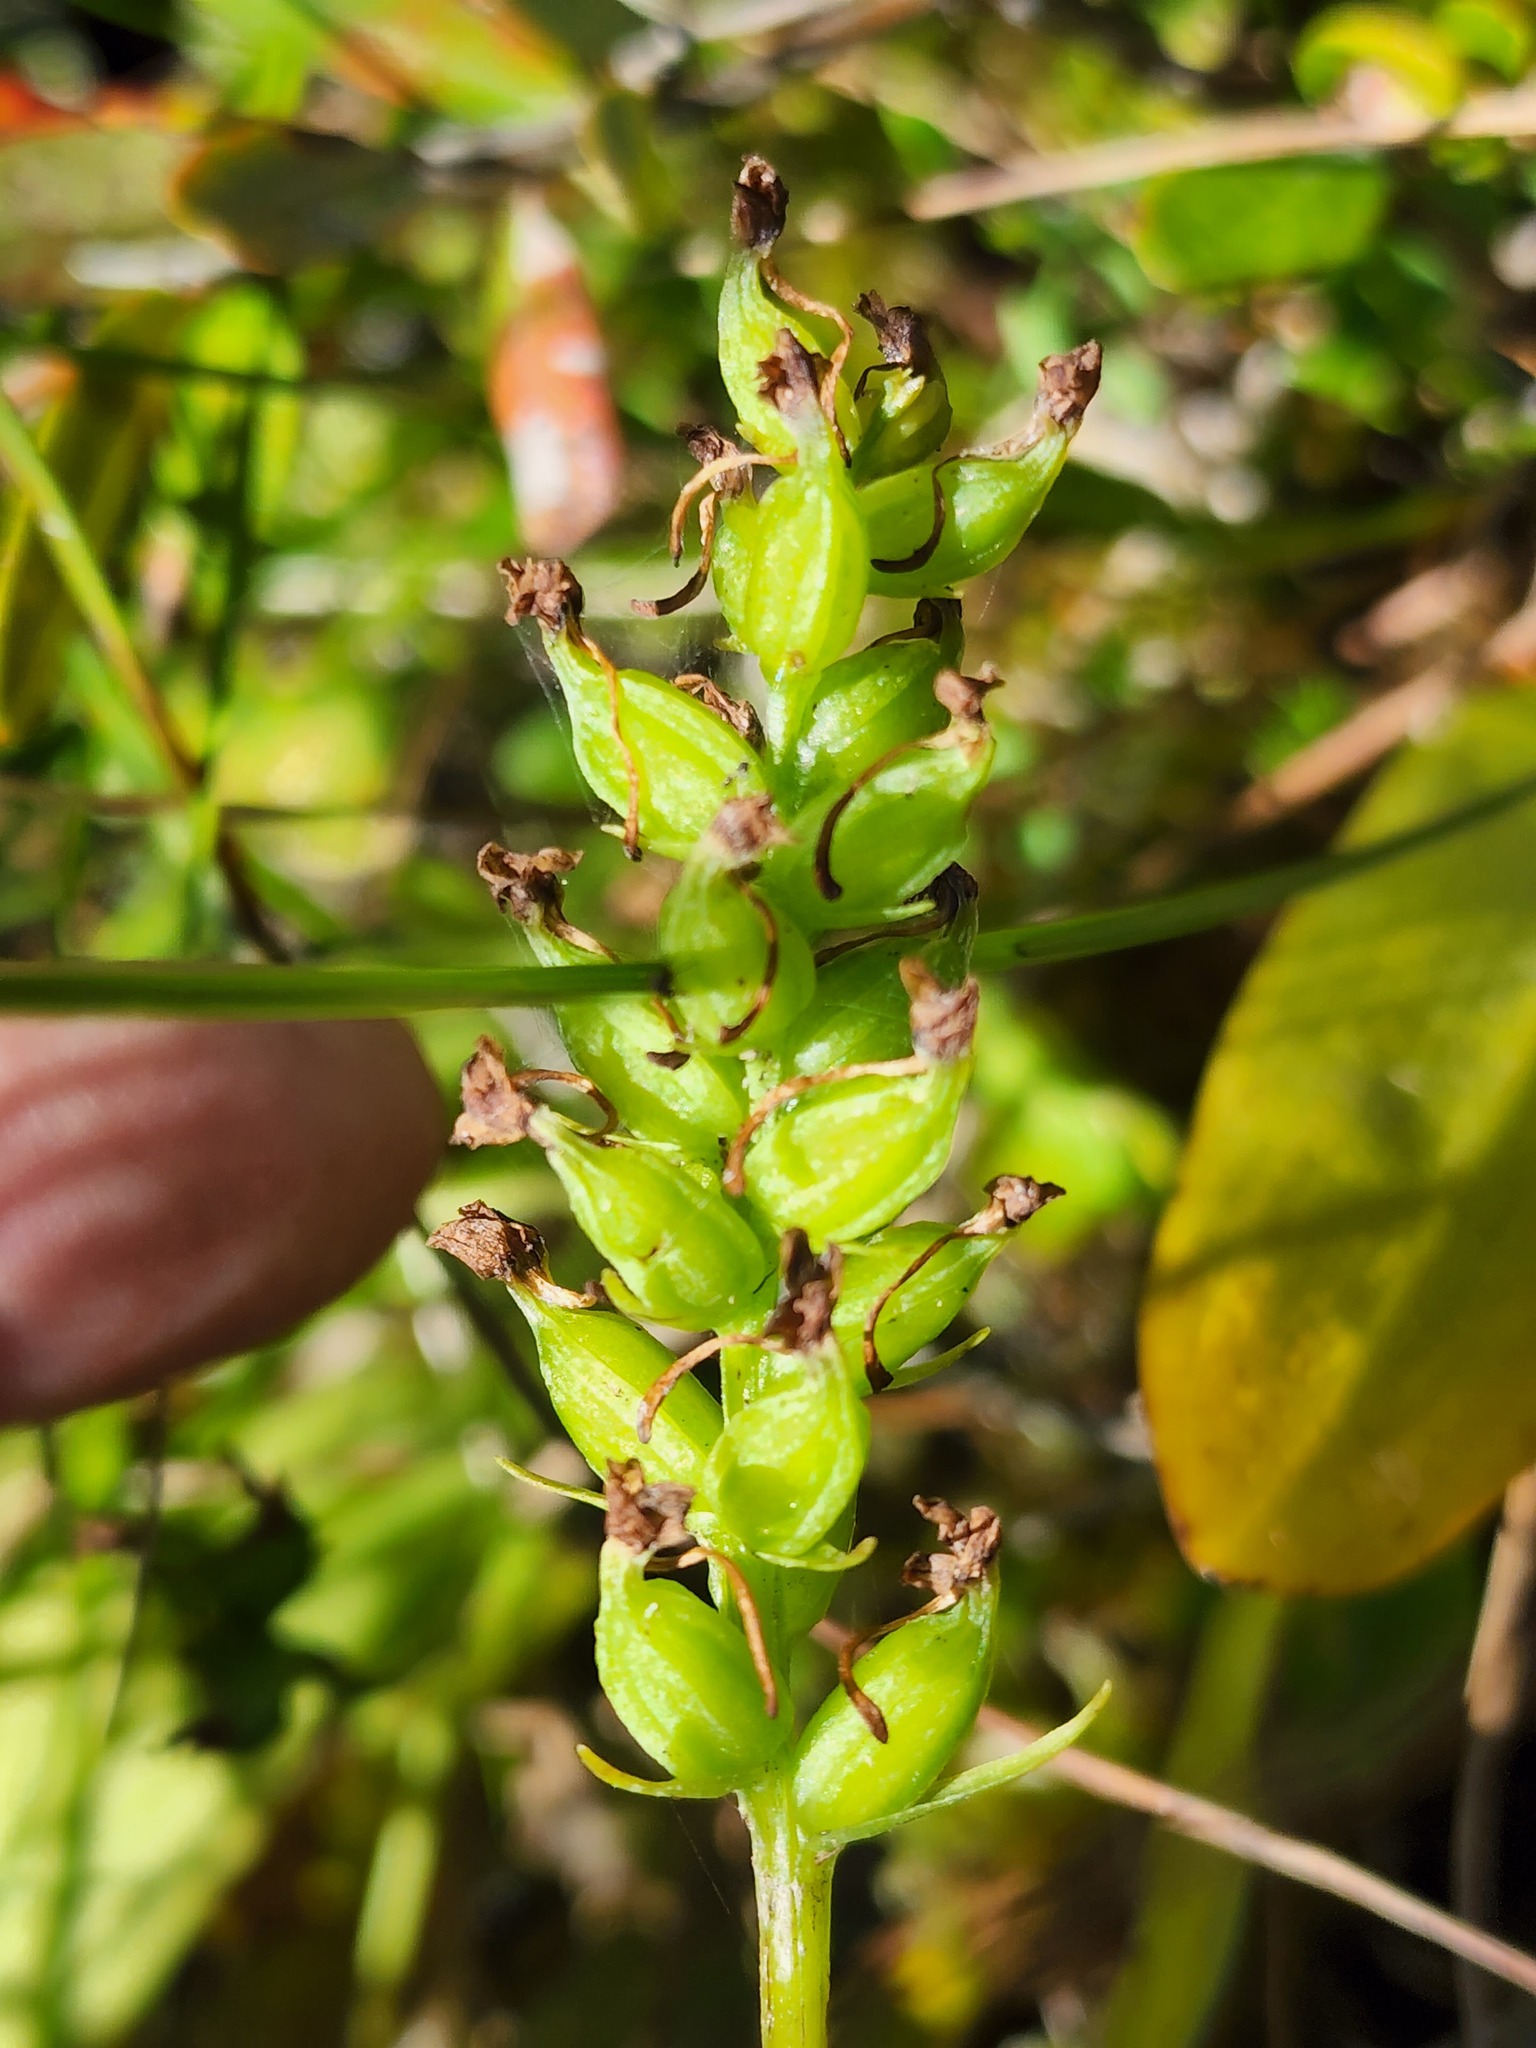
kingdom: Plantae
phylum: Tracheophyta
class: Liliopsida
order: Asparagales
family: Orchidaceae
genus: Platanthera
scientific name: Platanthera clavellata
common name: Club-spur orchid
